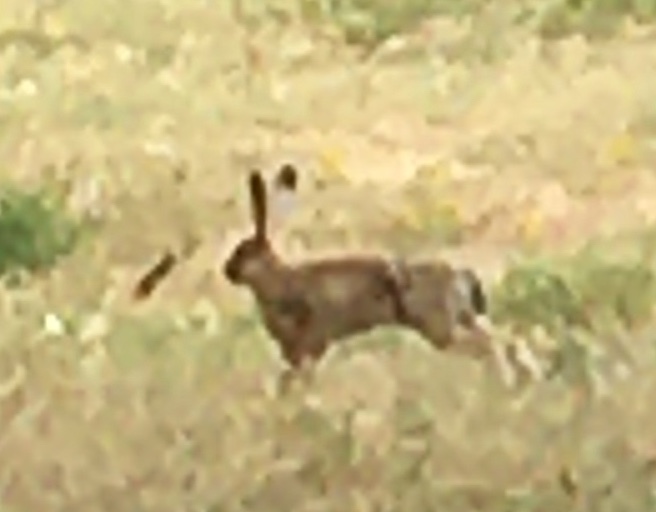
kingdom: Animalia
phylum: Chordata
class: Mammalia
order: Lagomorpha
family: Leporidae
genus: Lepus
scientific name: Lepus europaeus
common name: European hare
